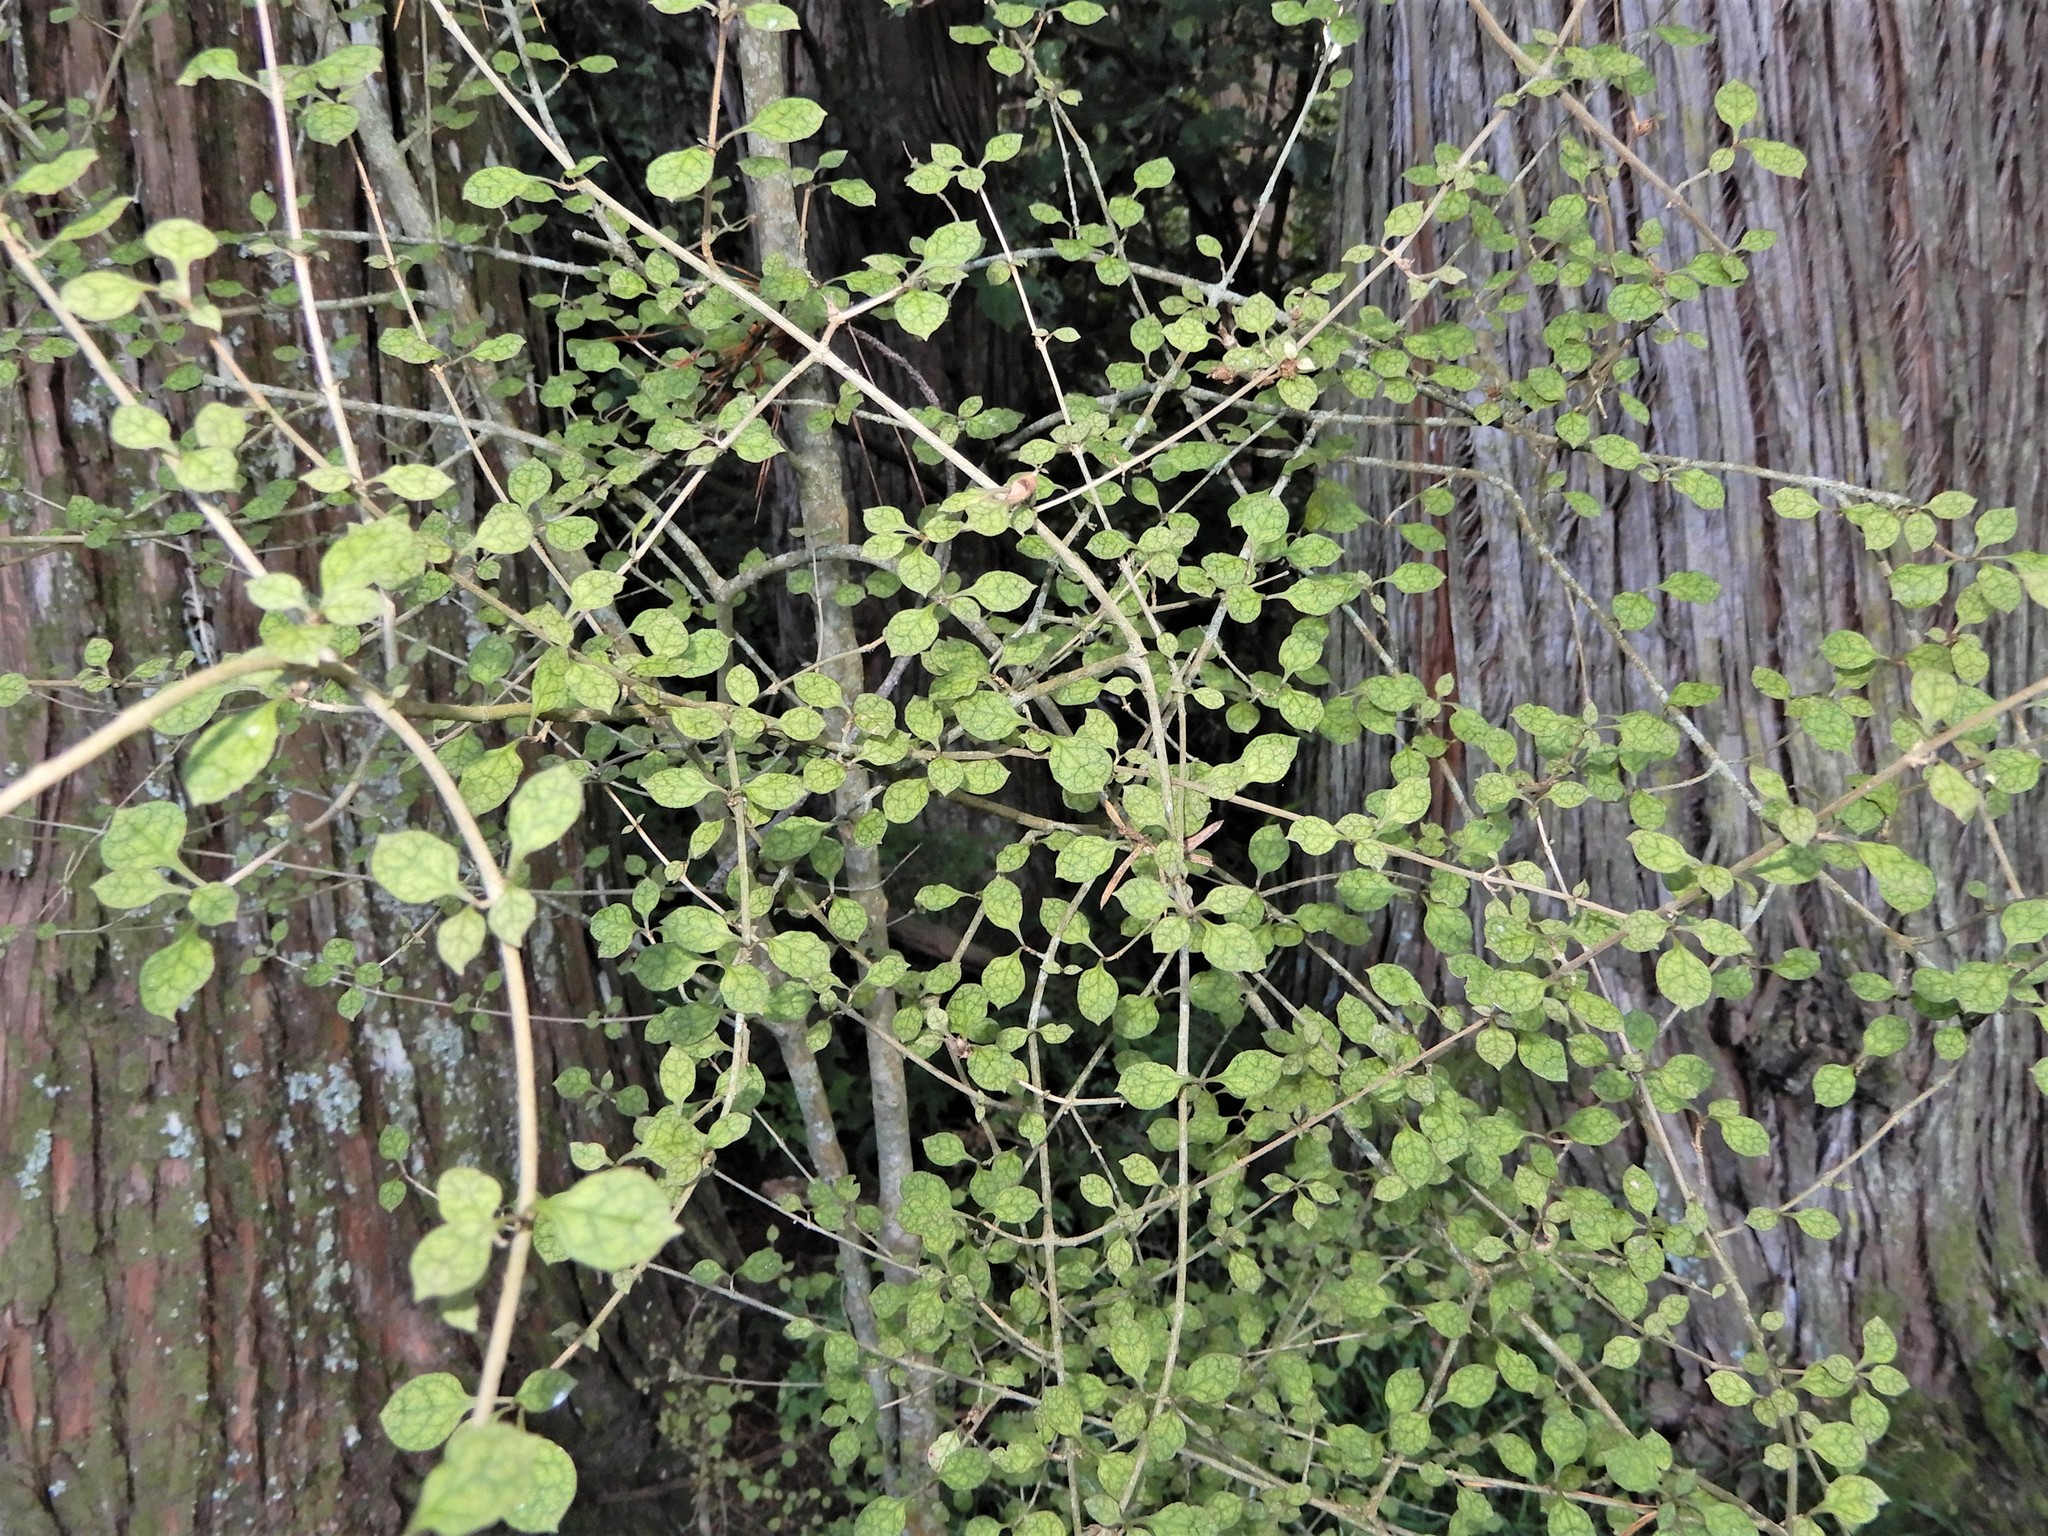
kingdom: Plantae
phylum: Tracheophyta
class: Magnoliopsida
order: Gentianales
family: Rubiaceae
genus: Coprosma
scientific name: Coprosma areolata
